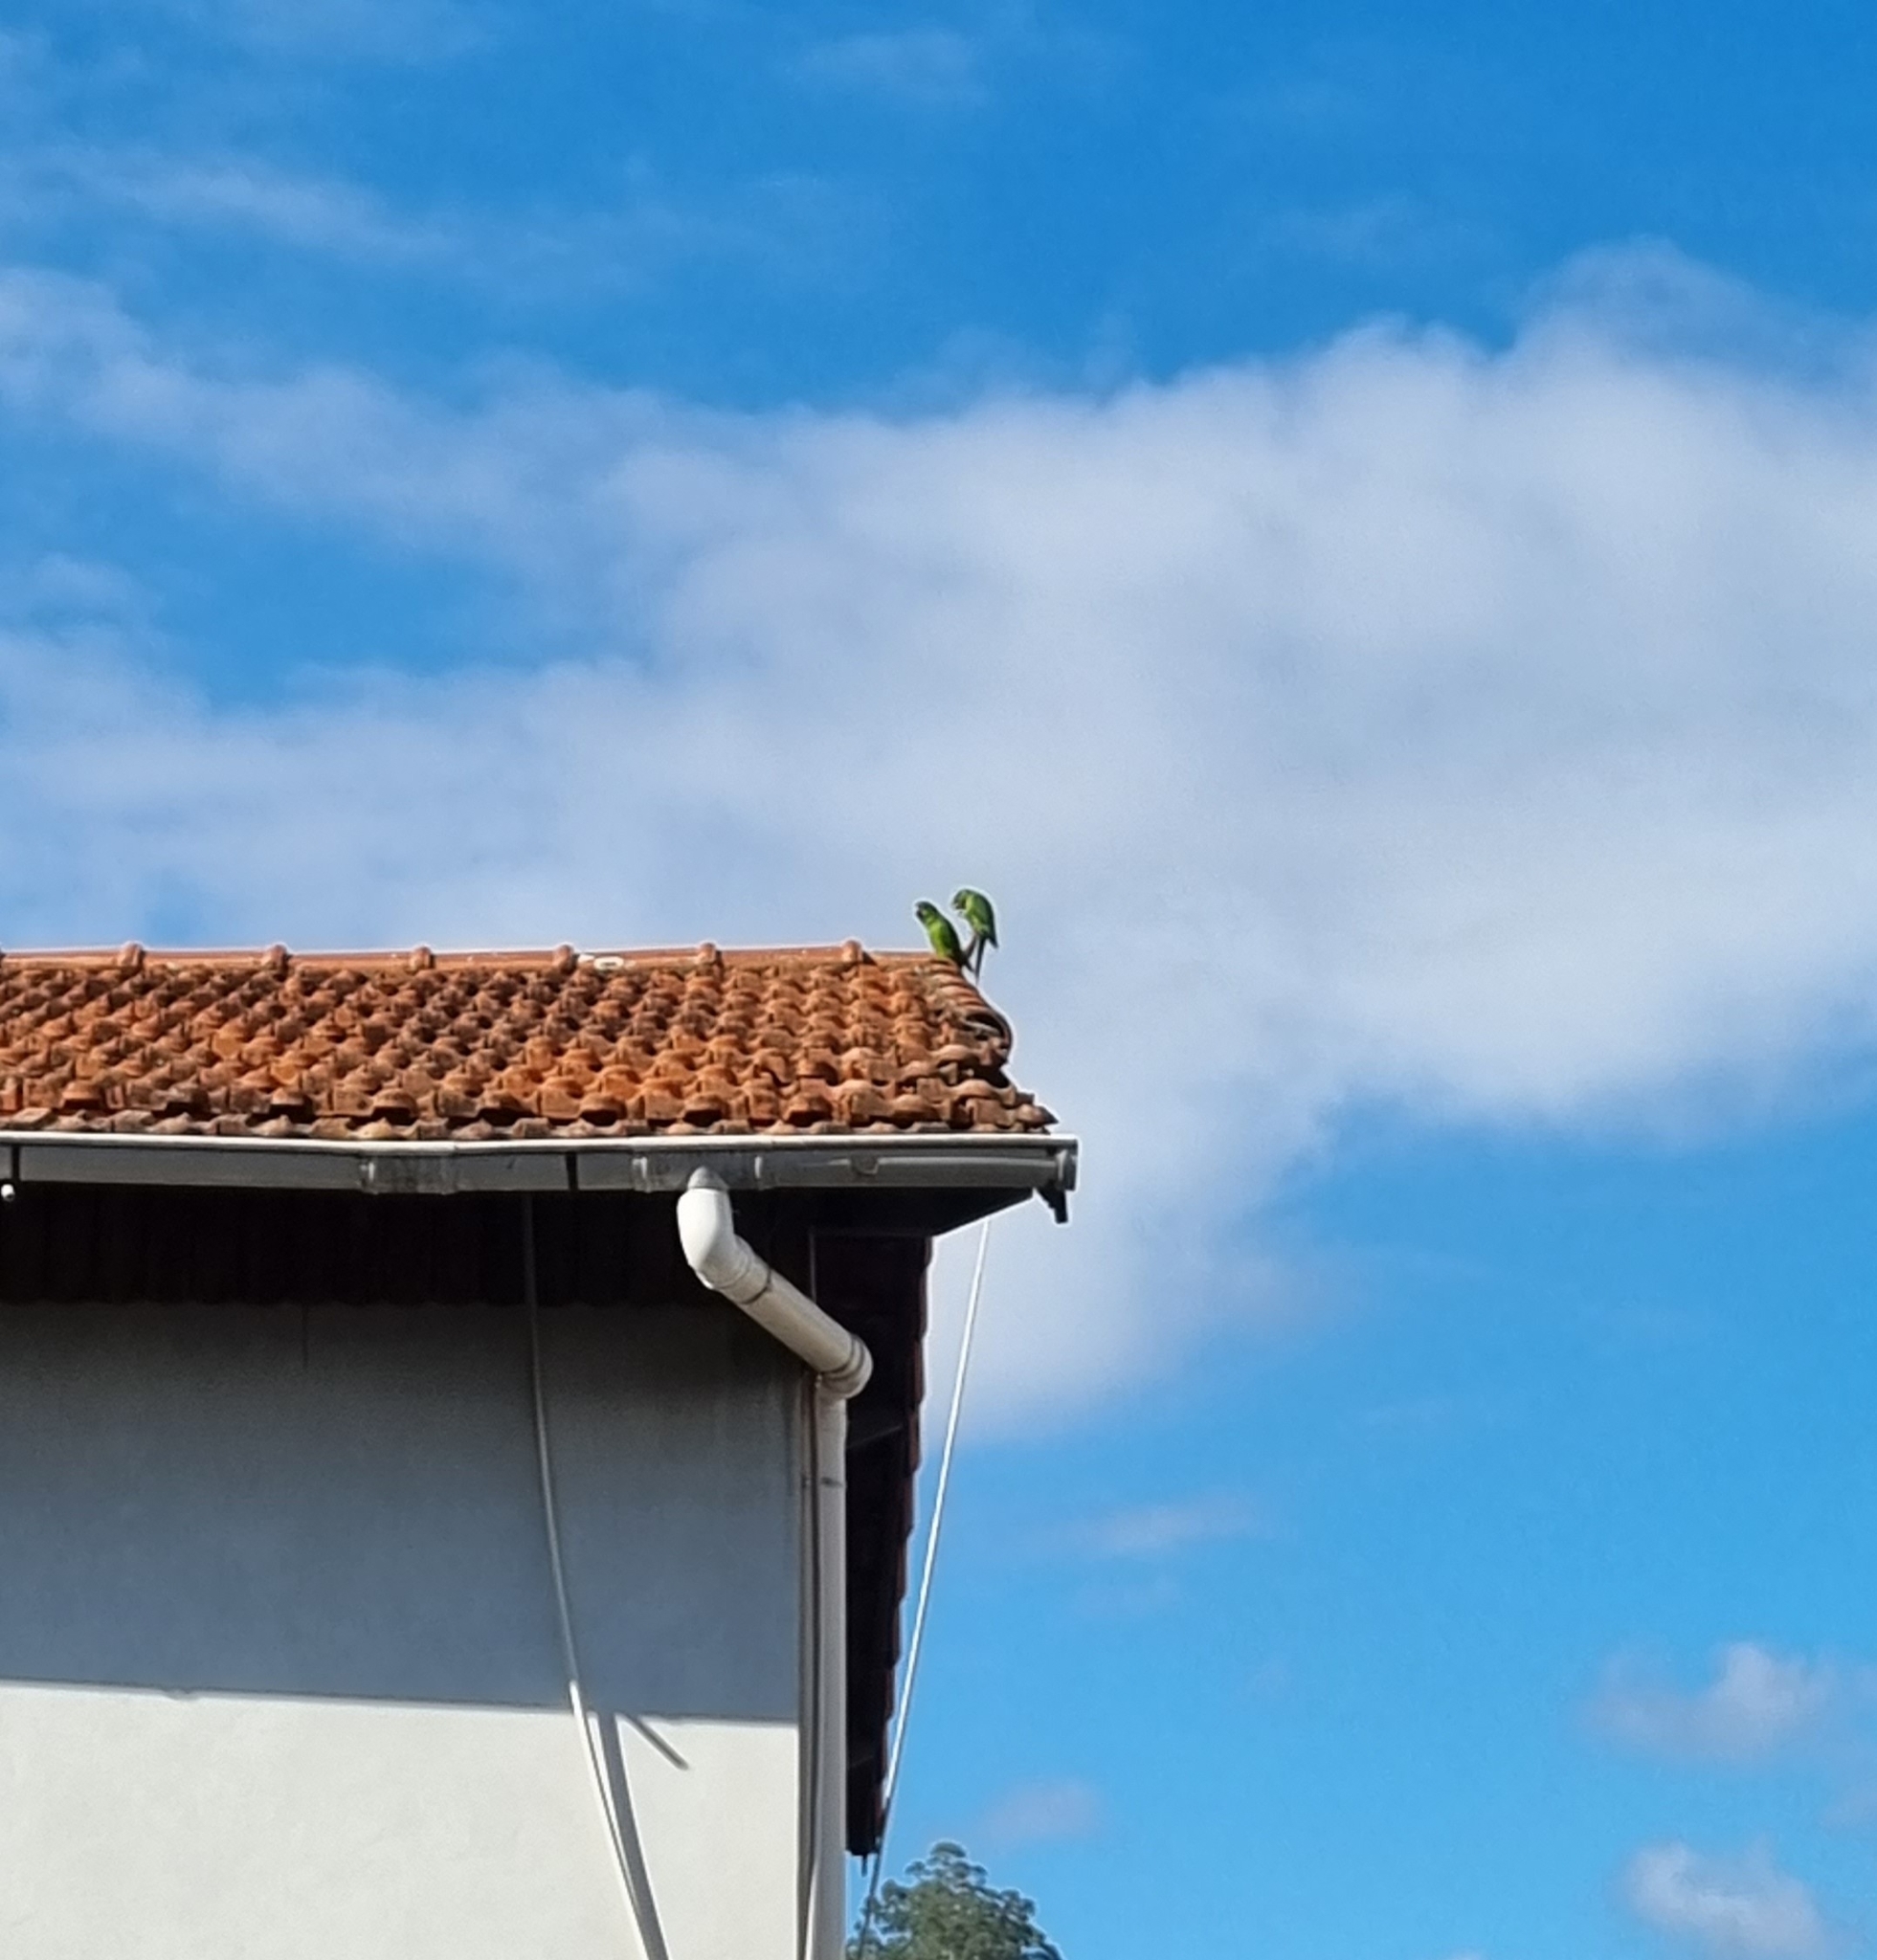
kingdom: Animalia
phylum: Chordata
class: Aves
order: Psittaciformes
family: Psittacidae
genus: Aratinga
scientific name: Aratinga leucophthalma
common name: White-eyed parakeet
